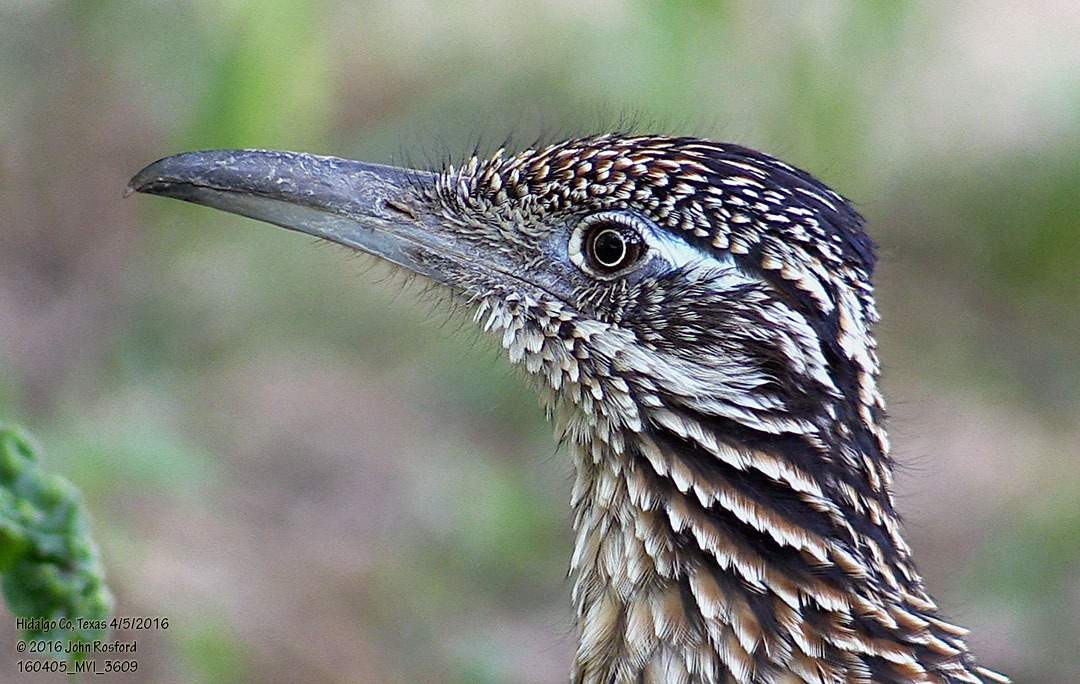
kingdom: Animalia
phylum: Chordata
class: Aves
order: Cuculiformes
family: Cuculidae
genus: Geococcyx
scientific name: Geococcyx californianus
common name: Greater roadrunner
